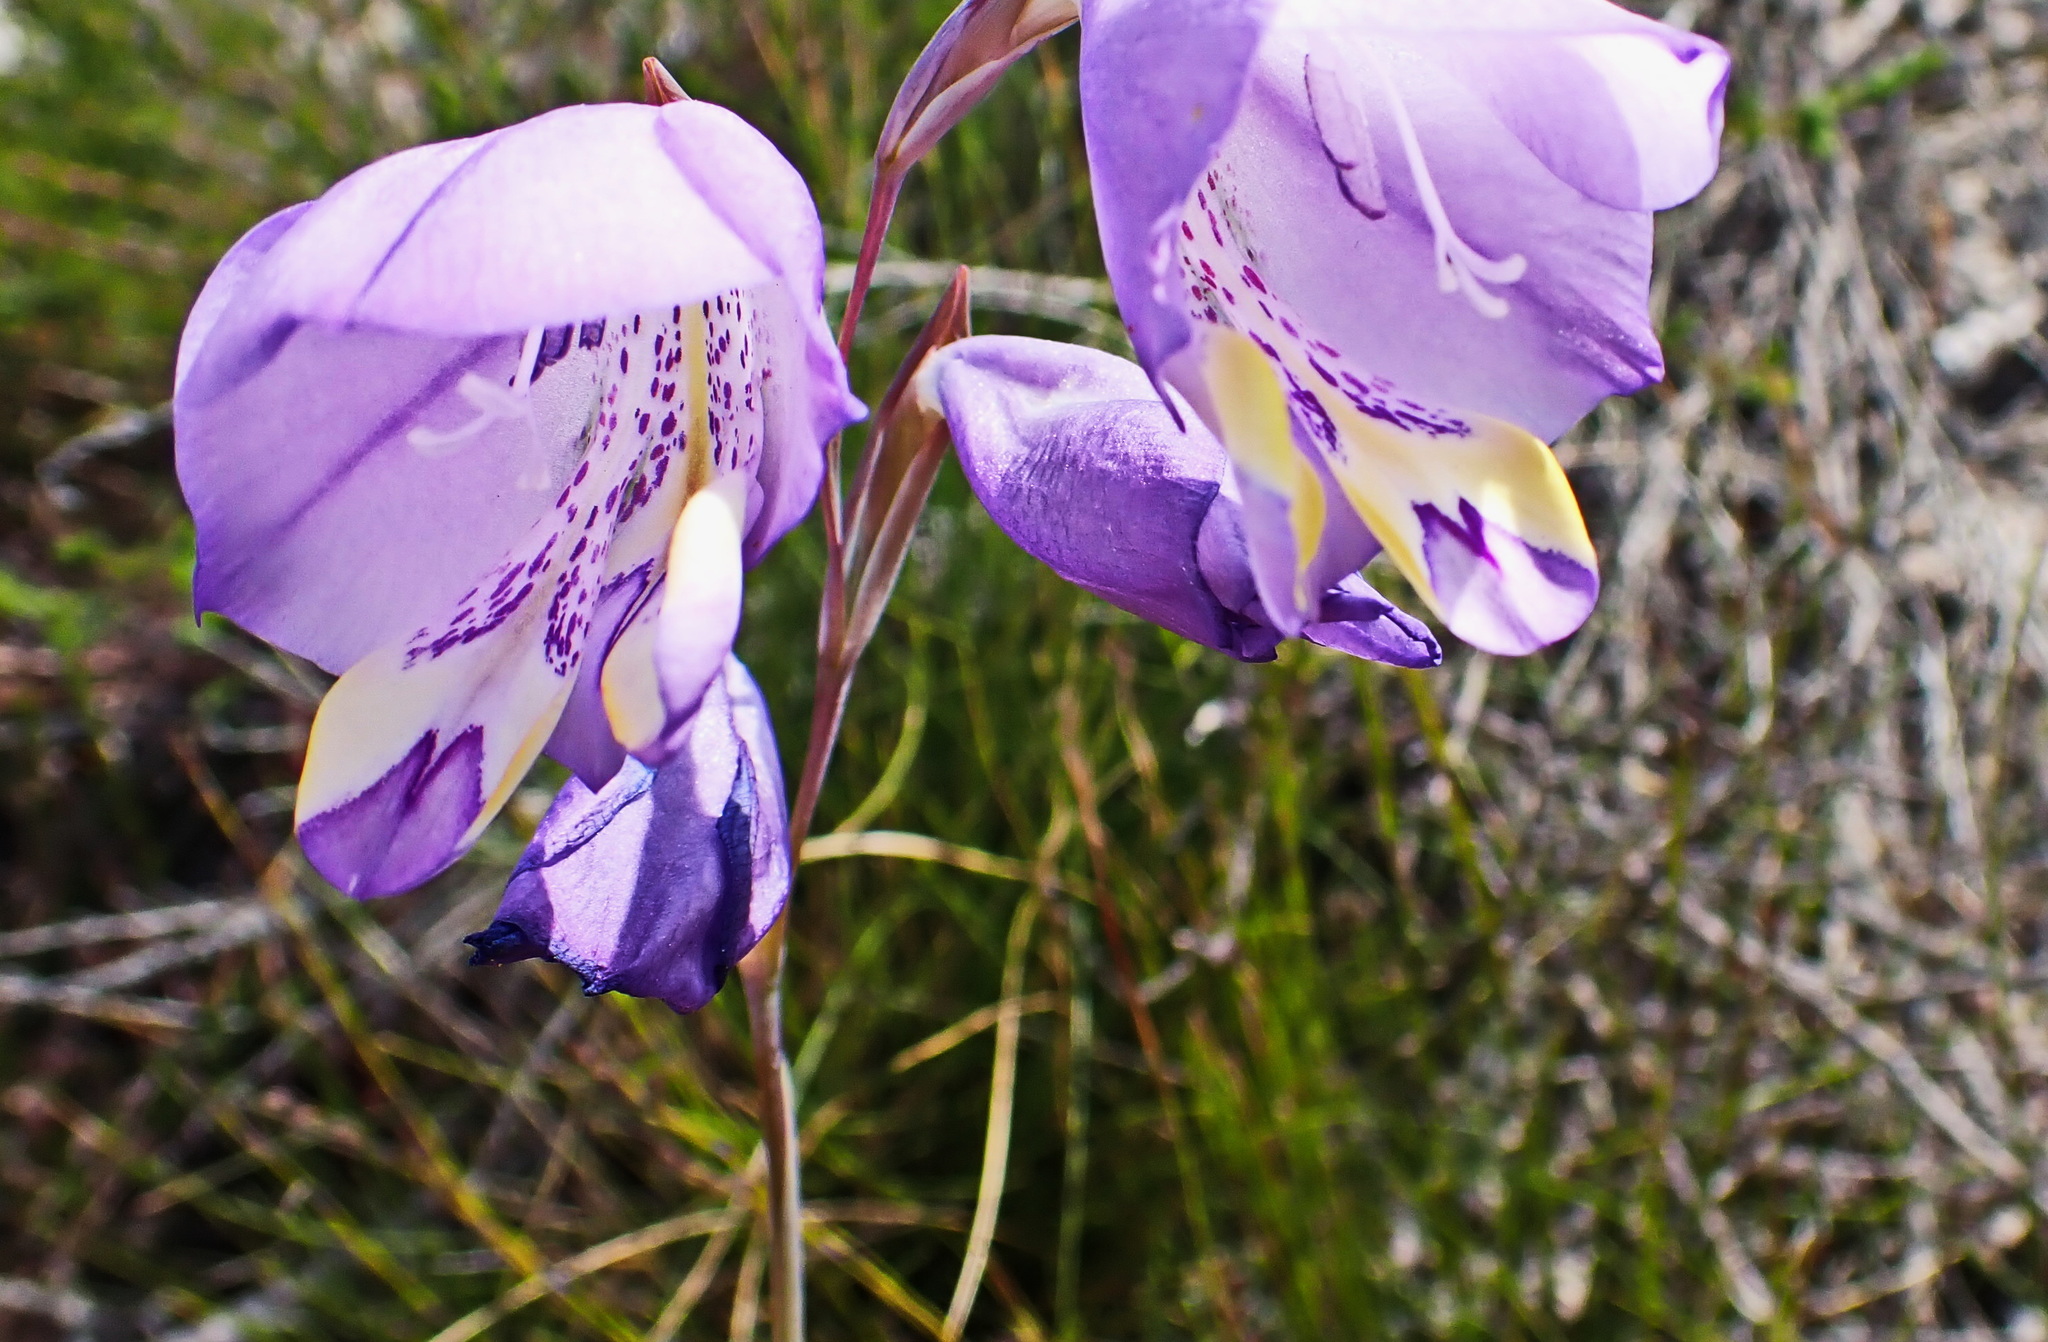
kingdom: Plantae
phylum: Tracheophyta
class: Liliopsida
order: Asparagales
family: Iridaceae
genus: Gladiolus
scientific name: Gladiolus rogersii
